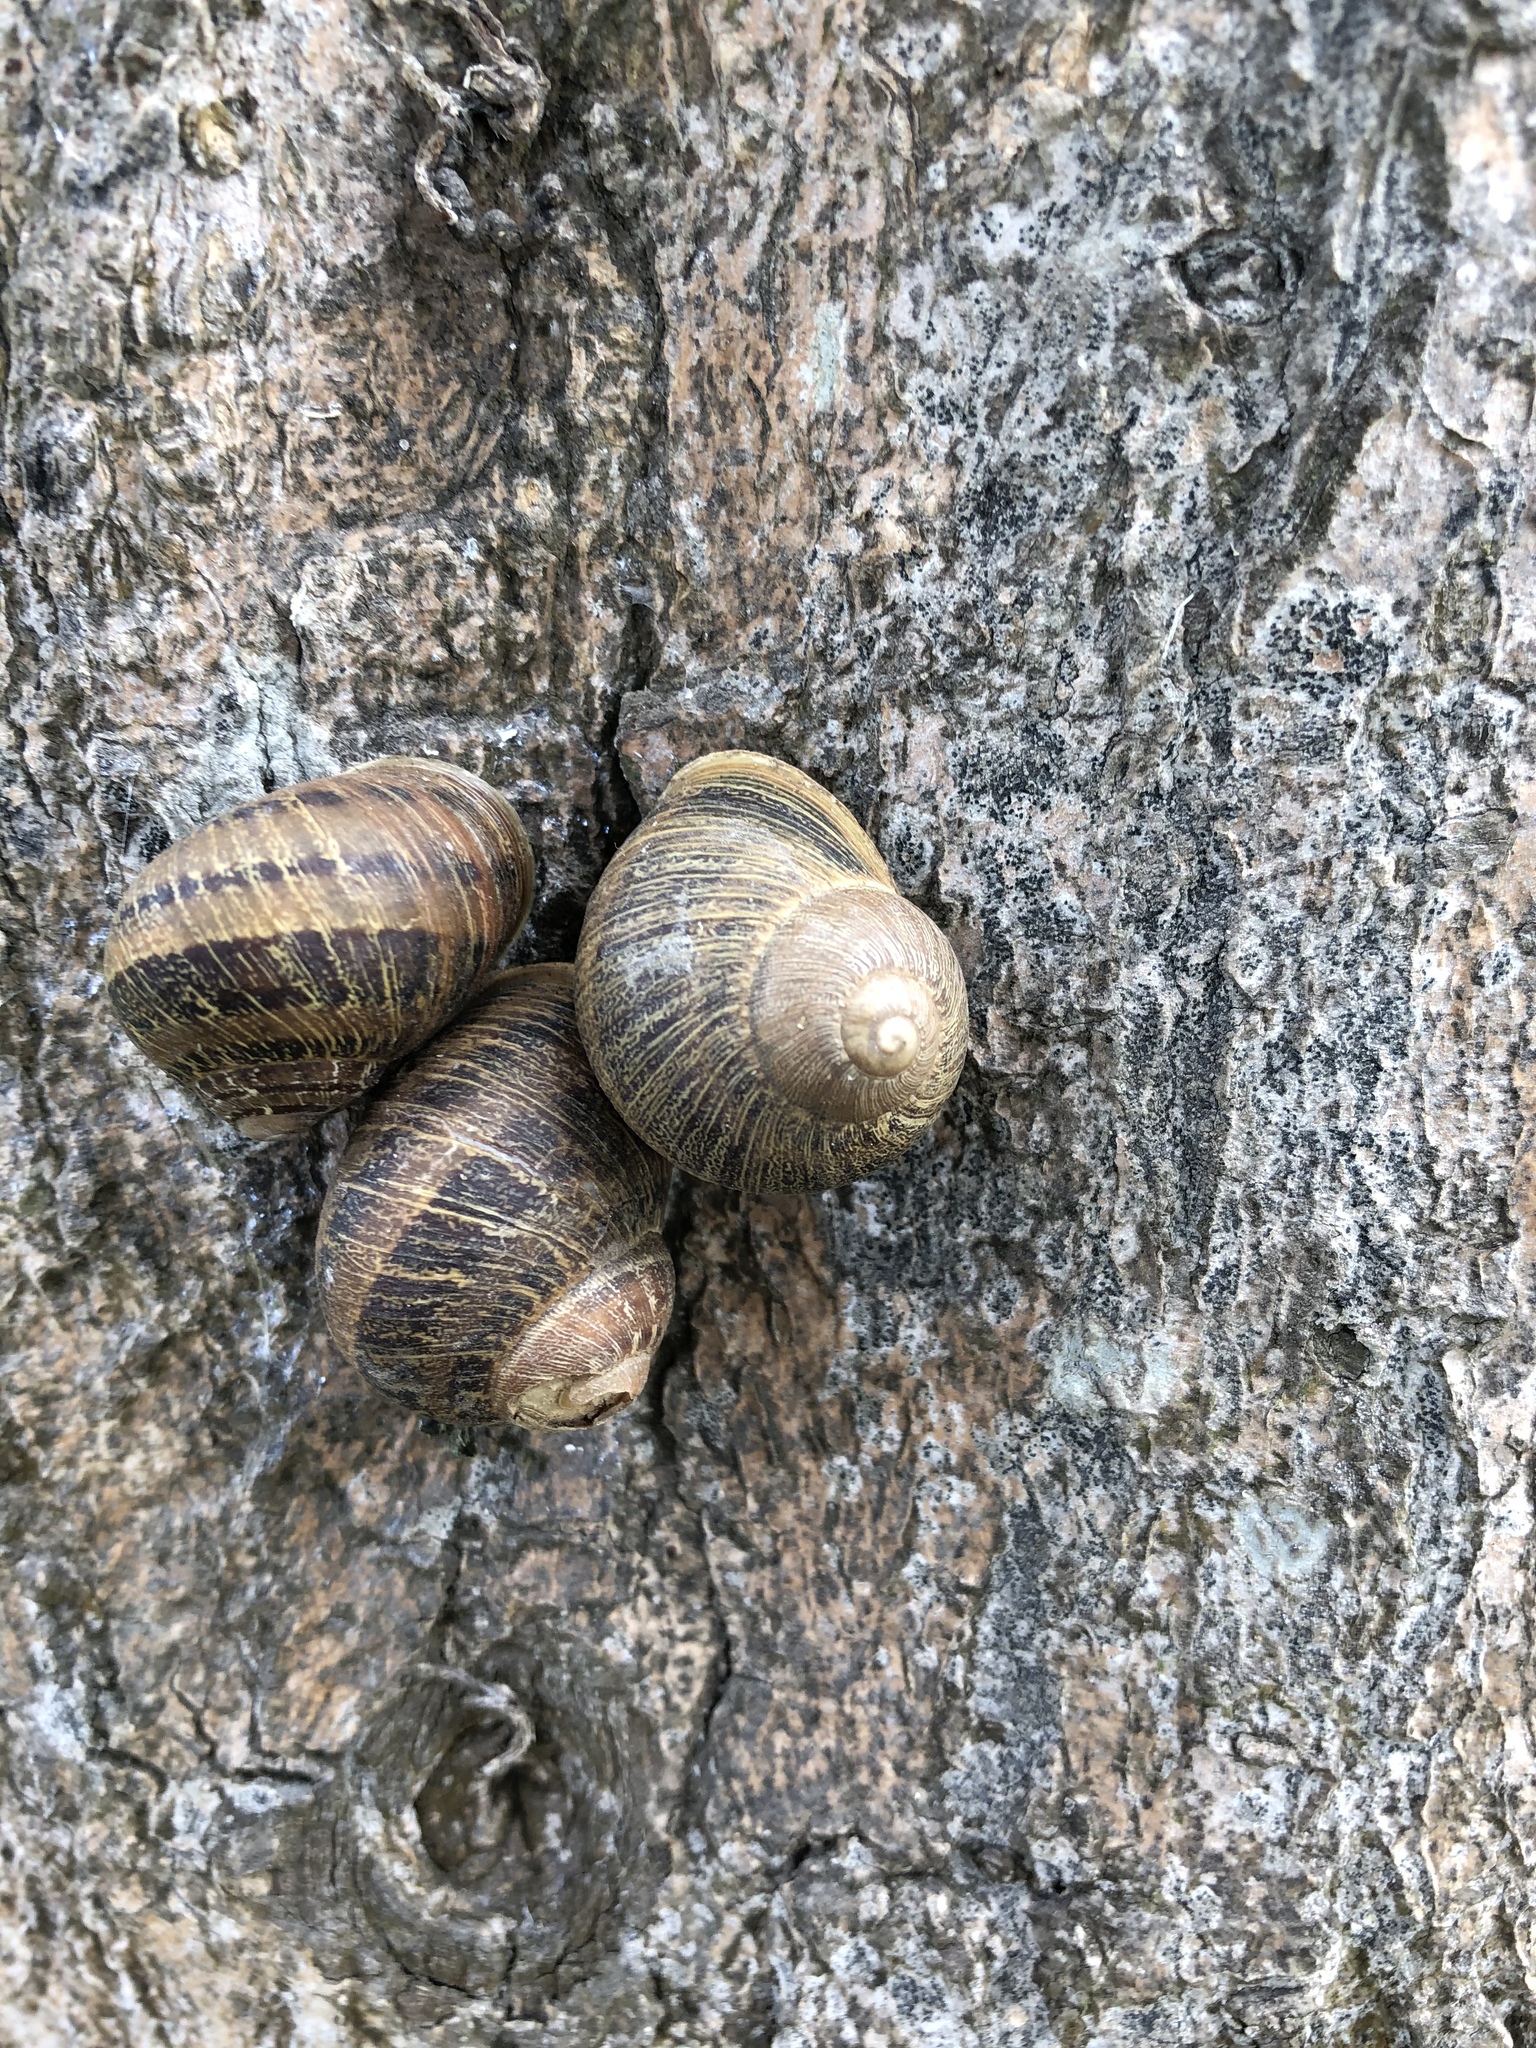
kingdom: Animalia
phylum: Mollusca
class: Gastropoda
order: Stylommatophora
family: Helicidae
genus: Cornu
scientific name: Cornu aspersum
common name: Brown garden snail
